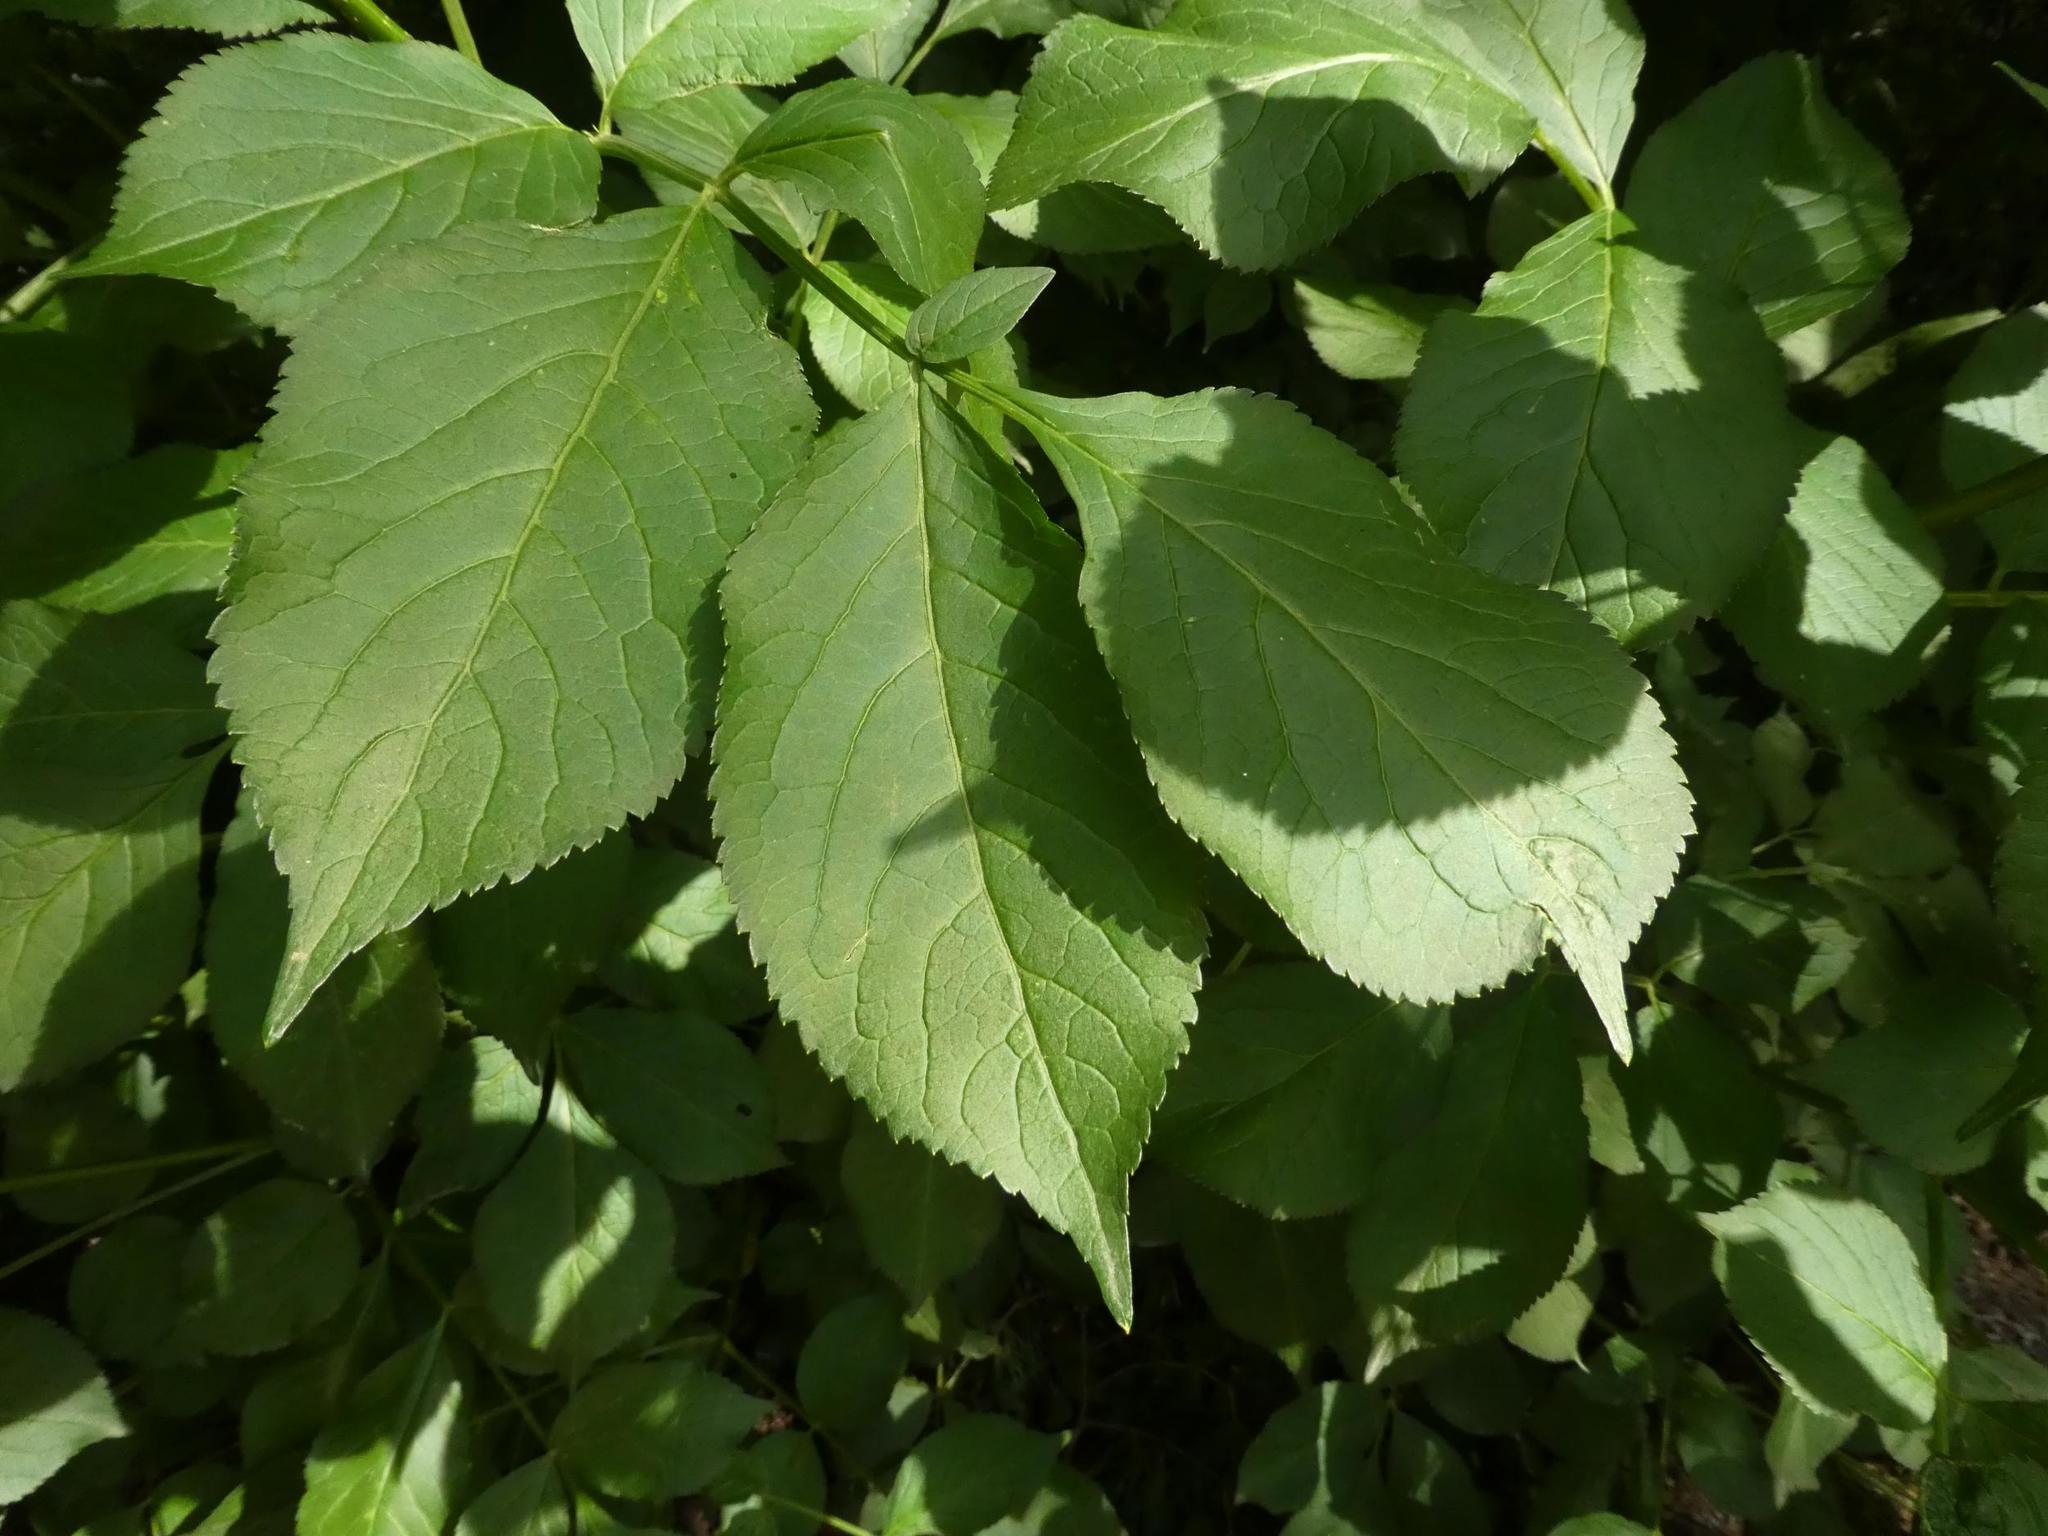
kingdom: Plantae
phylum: Tracheophyta
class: Magnoliopsida
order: Dipsacales
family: Viburnaceae
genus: Sambucus
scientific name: Sambucus nigra
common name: Elder
